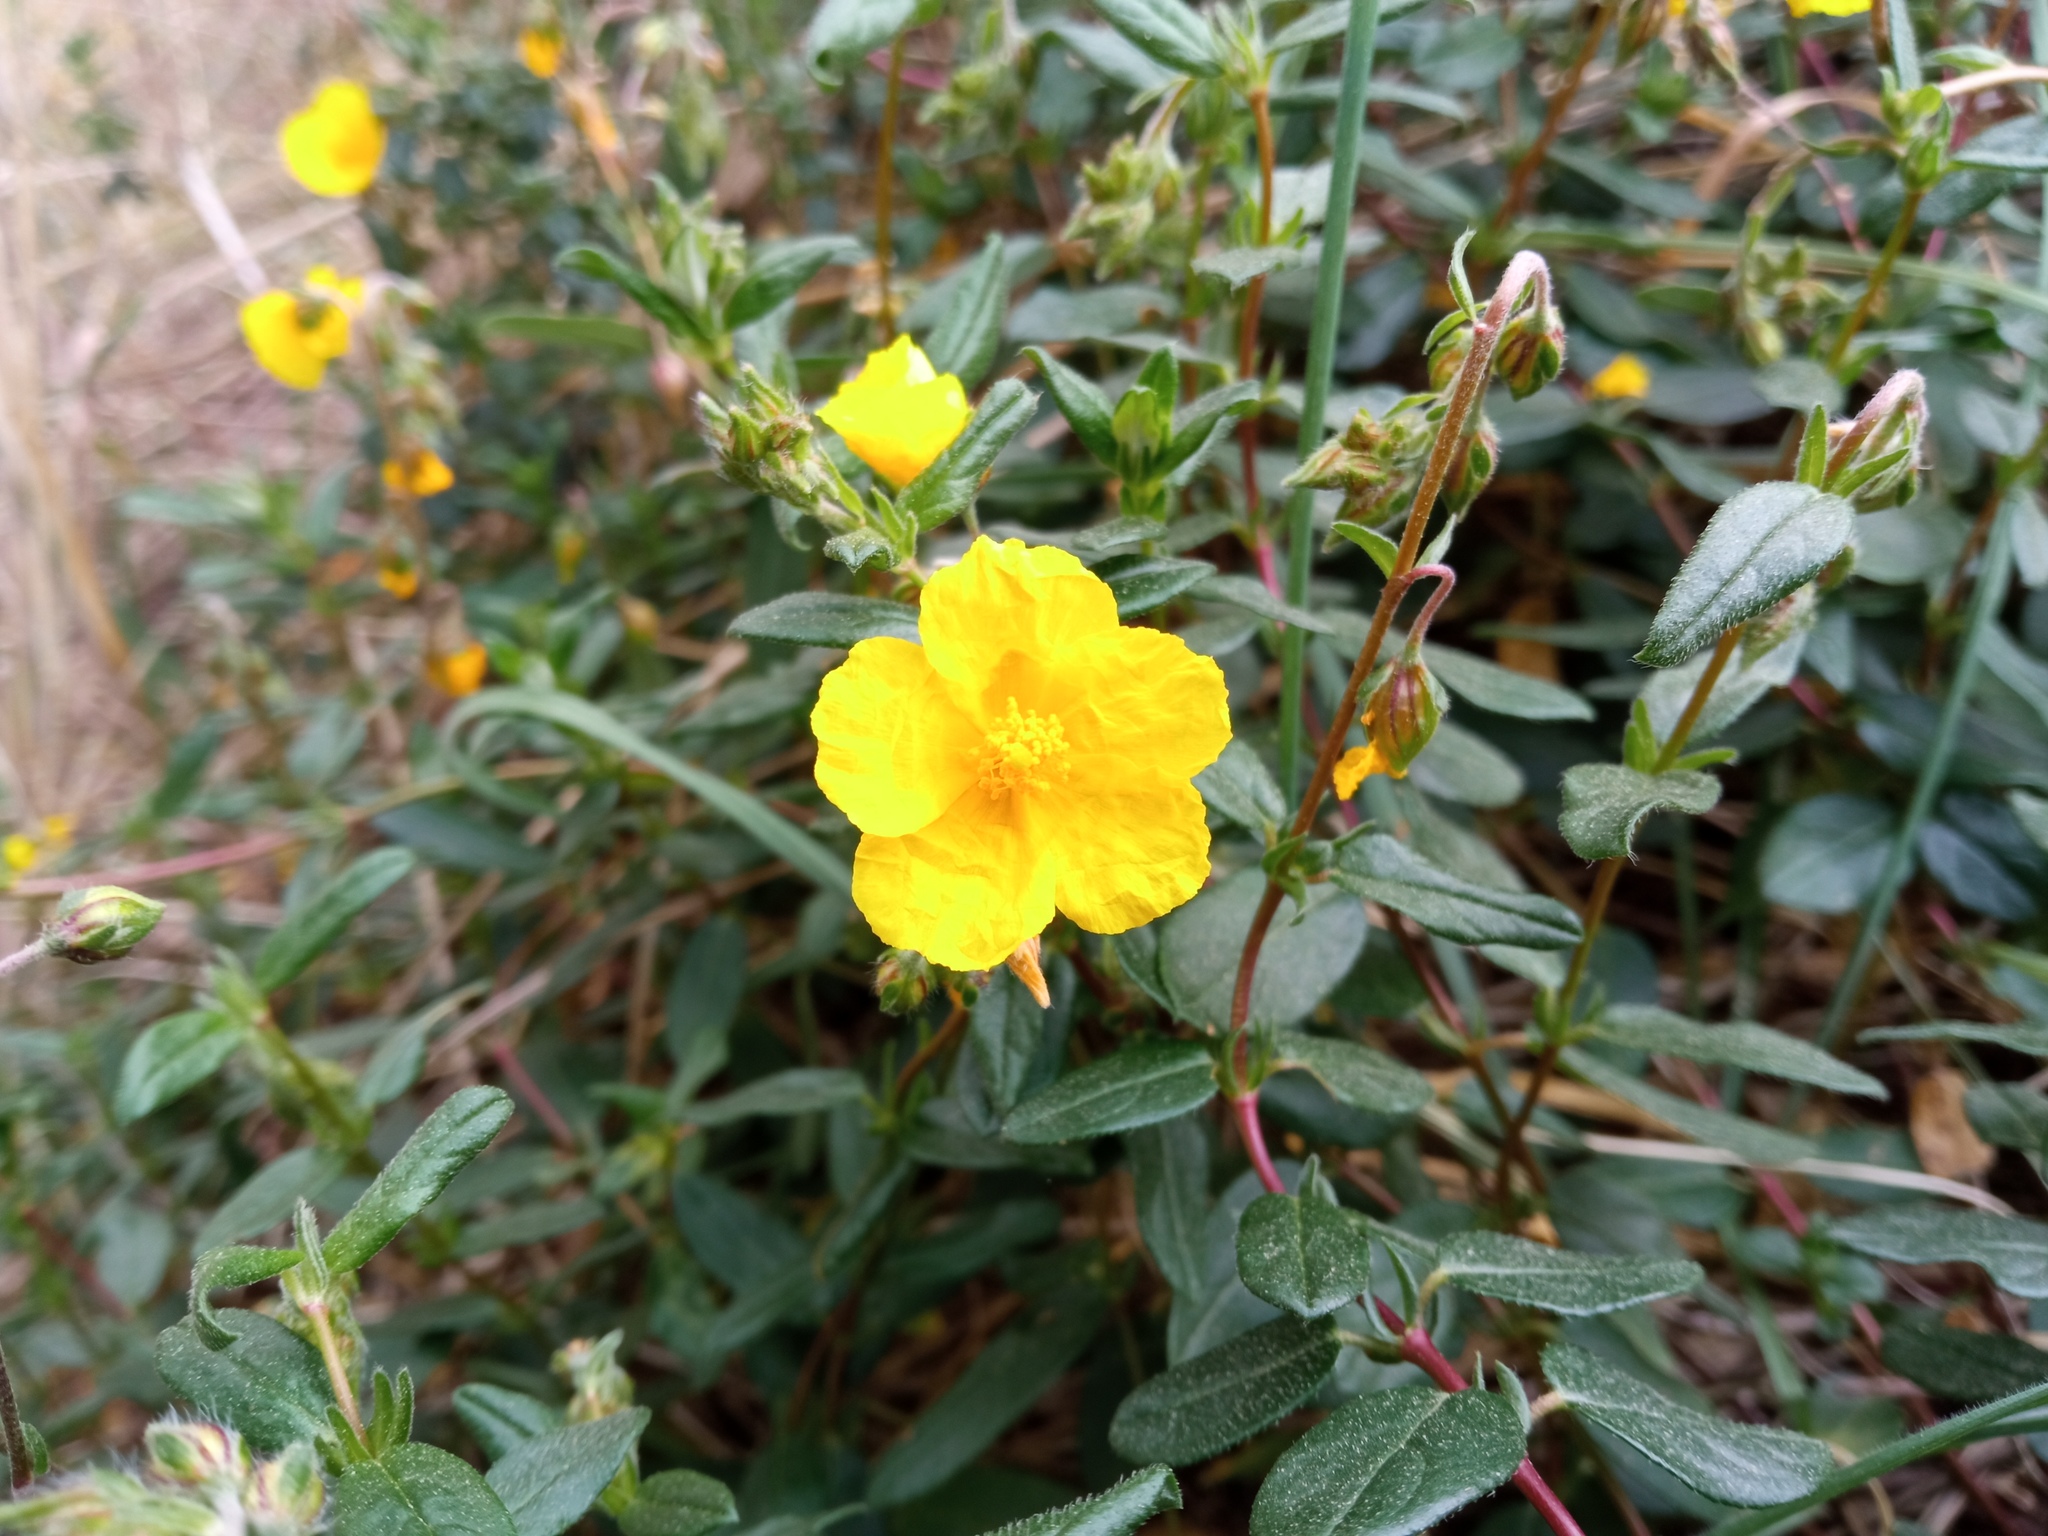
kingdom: Plantae
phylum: Tracheophyta
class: Magnoliopsida
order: Malvales
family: Cistaceae
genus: Helianthemum
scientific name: Helianthemum nummularium
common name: Common rock-rose
